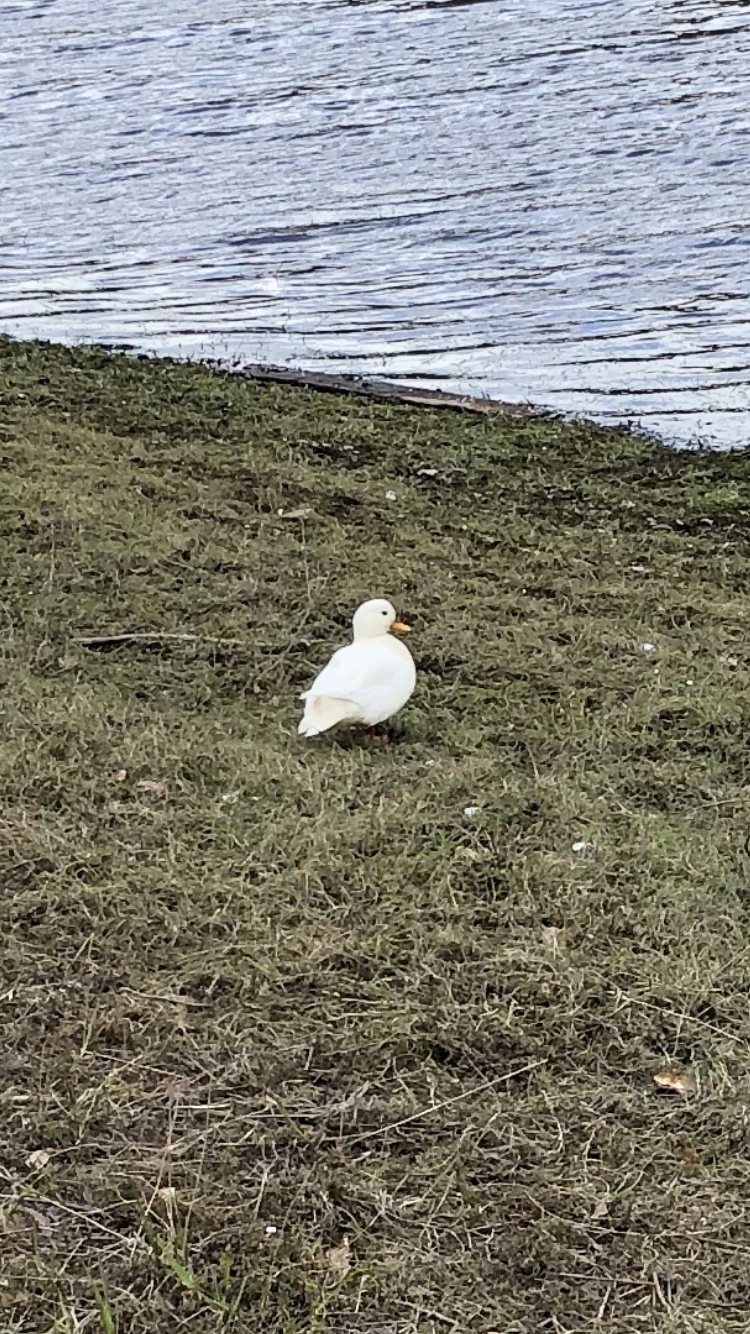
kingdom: Animalia
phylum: Chordata
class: Aves
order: Anseriformes
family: Anatidae
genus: Anas
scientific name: Anas platyrhynchos
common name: Mallard
